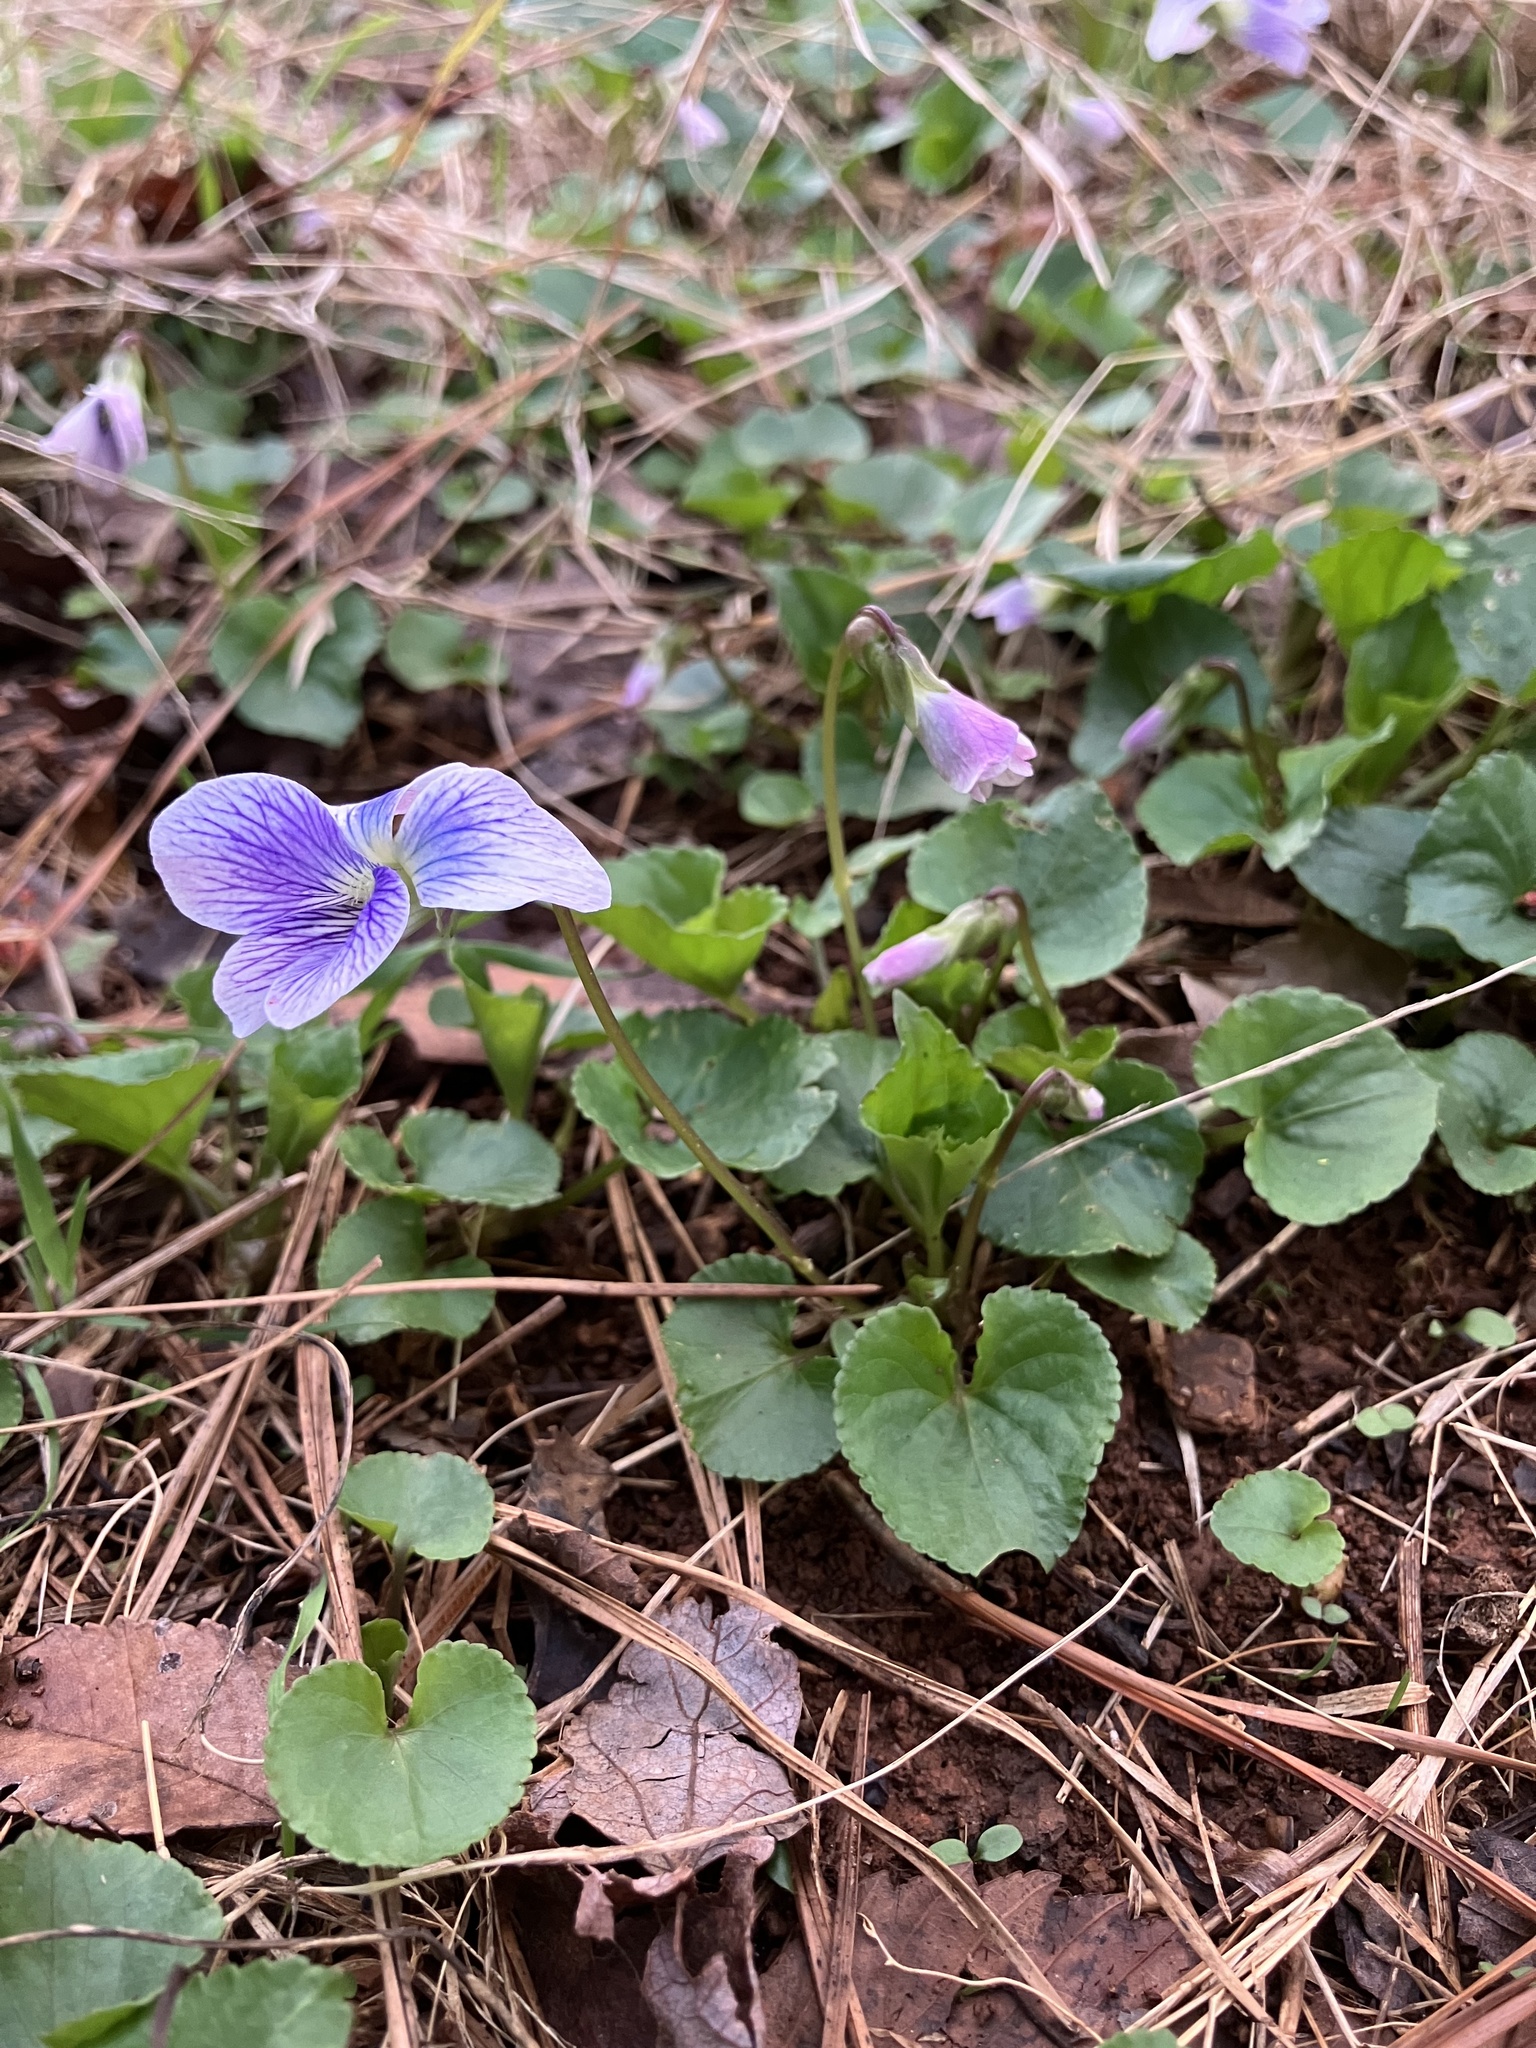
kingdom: Plantae
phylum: Tracheophyta
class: Magnoliopsida
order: Malpighiales
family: Violaceae
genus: Viola
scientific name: Viola communis
